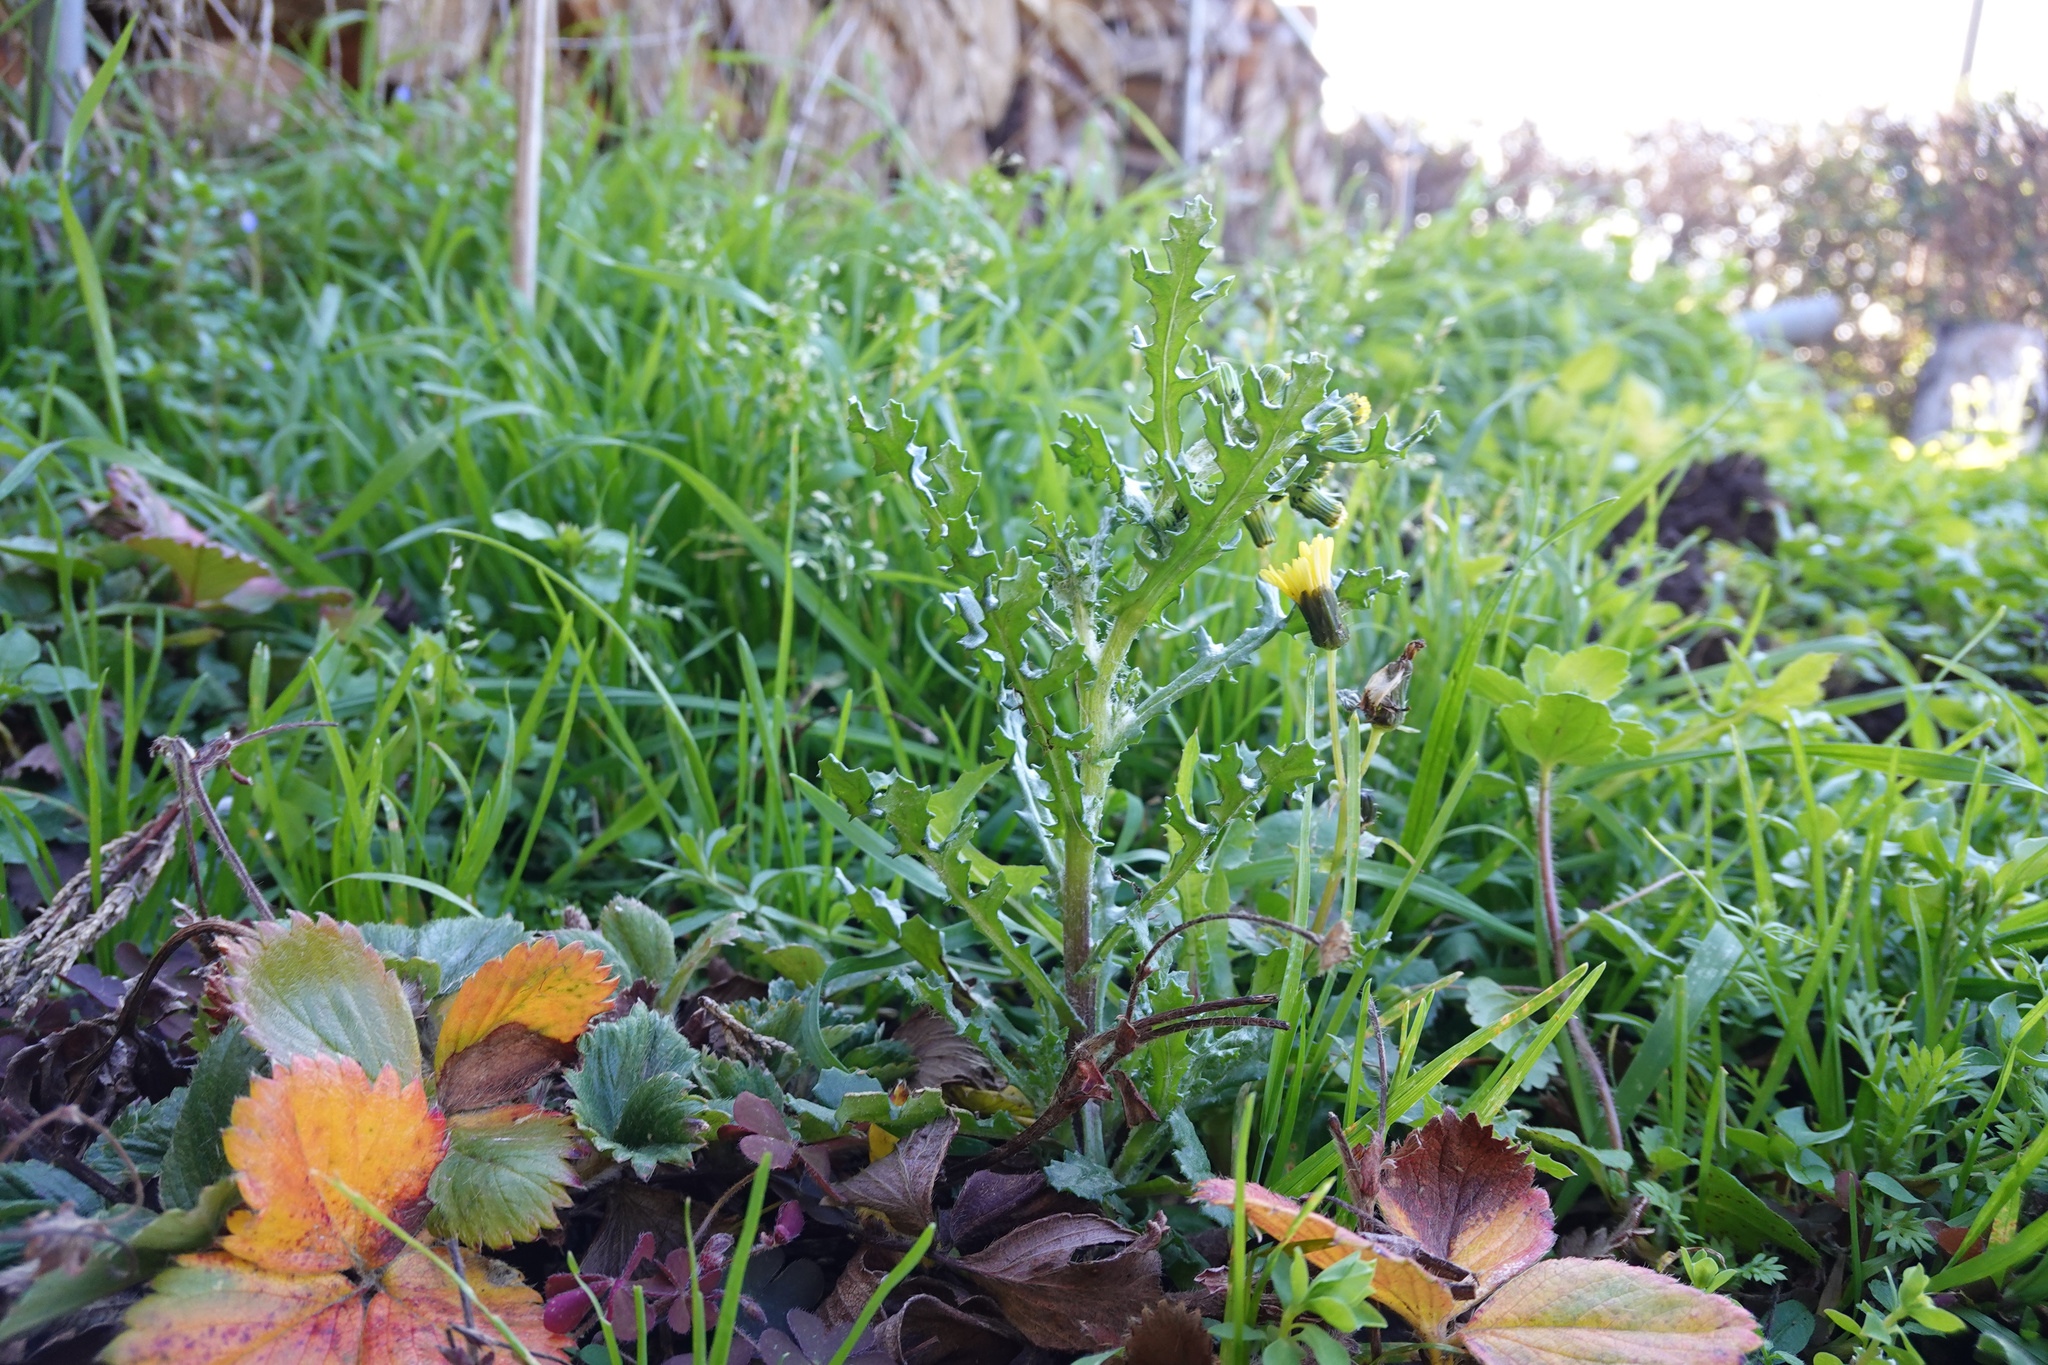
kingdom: Plantae
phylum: Tracheophyta
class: Magnoliopsida
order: Asterales
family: Asteraceae
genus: Senecio
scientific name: Senecio vulgaris
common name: Old-man-in-the-spring
